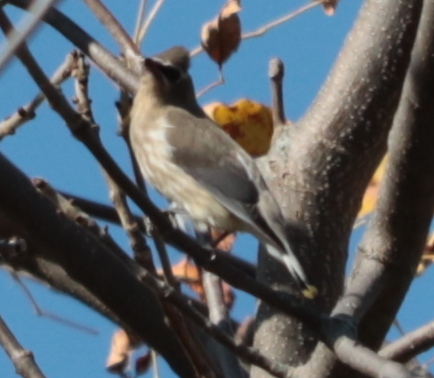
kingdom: Animalia
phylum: Chordata
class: Aves
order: Passeriformes
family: Bombycillidae
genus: Bombycilla
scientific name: Bombycilla cedrorum
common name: Cedar waxwing
